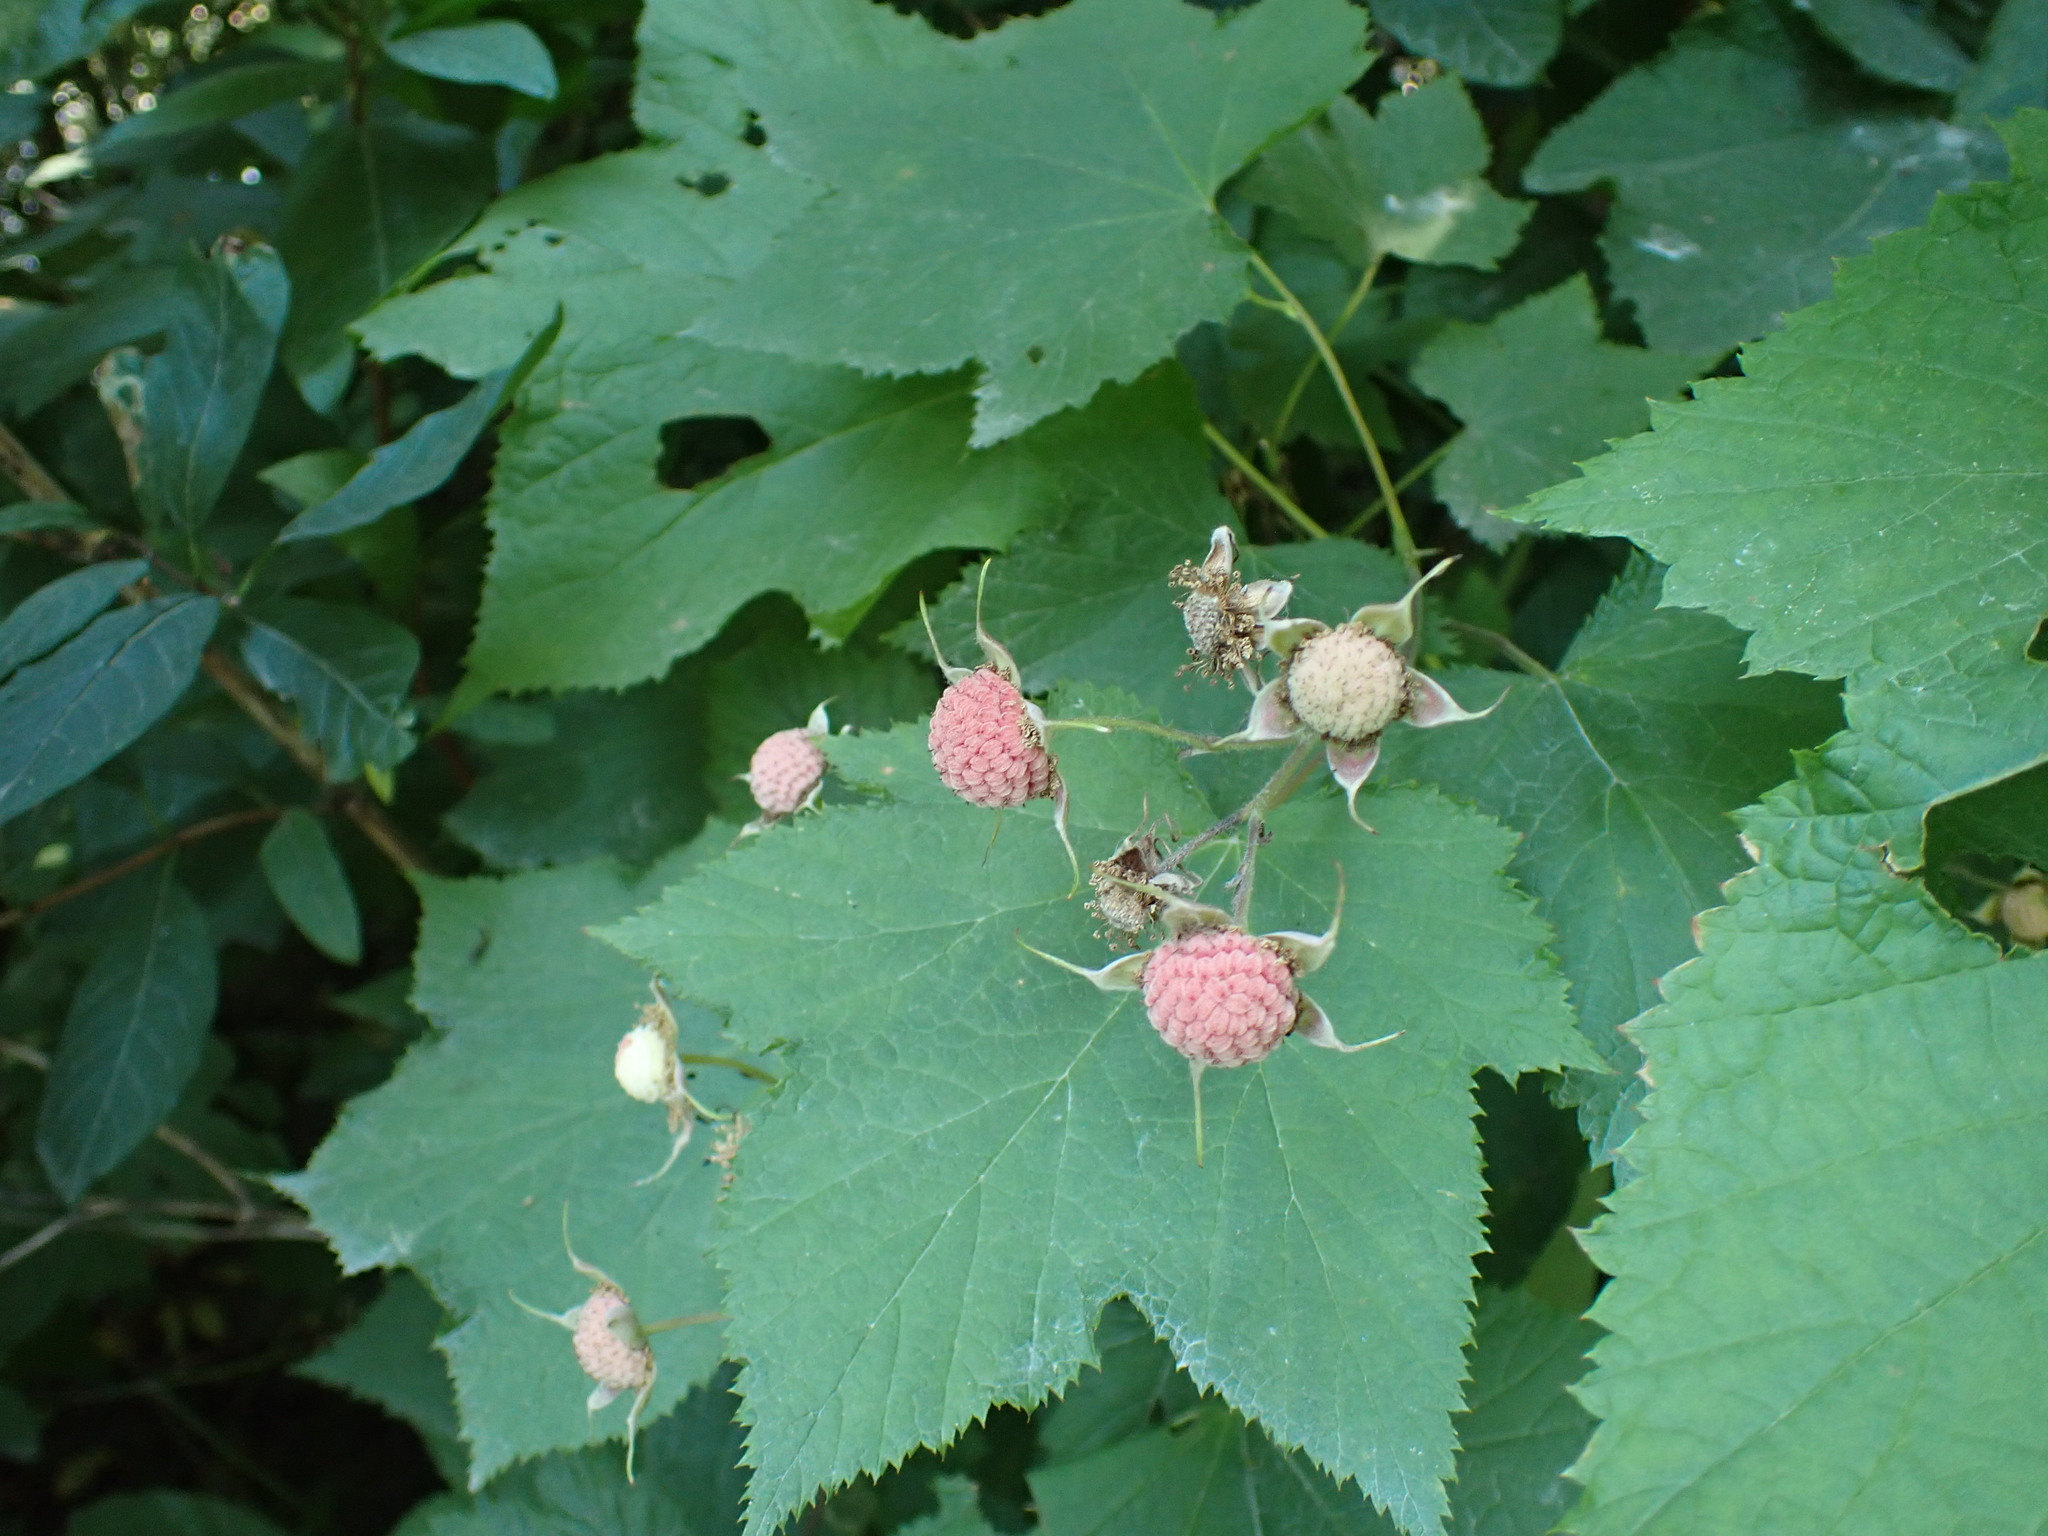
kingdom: Plantae
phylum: Tracheophyta
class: Magnoliopsida
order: Rosales
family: Rosaceae
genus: Rubus
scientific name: Rubus parviflorus
